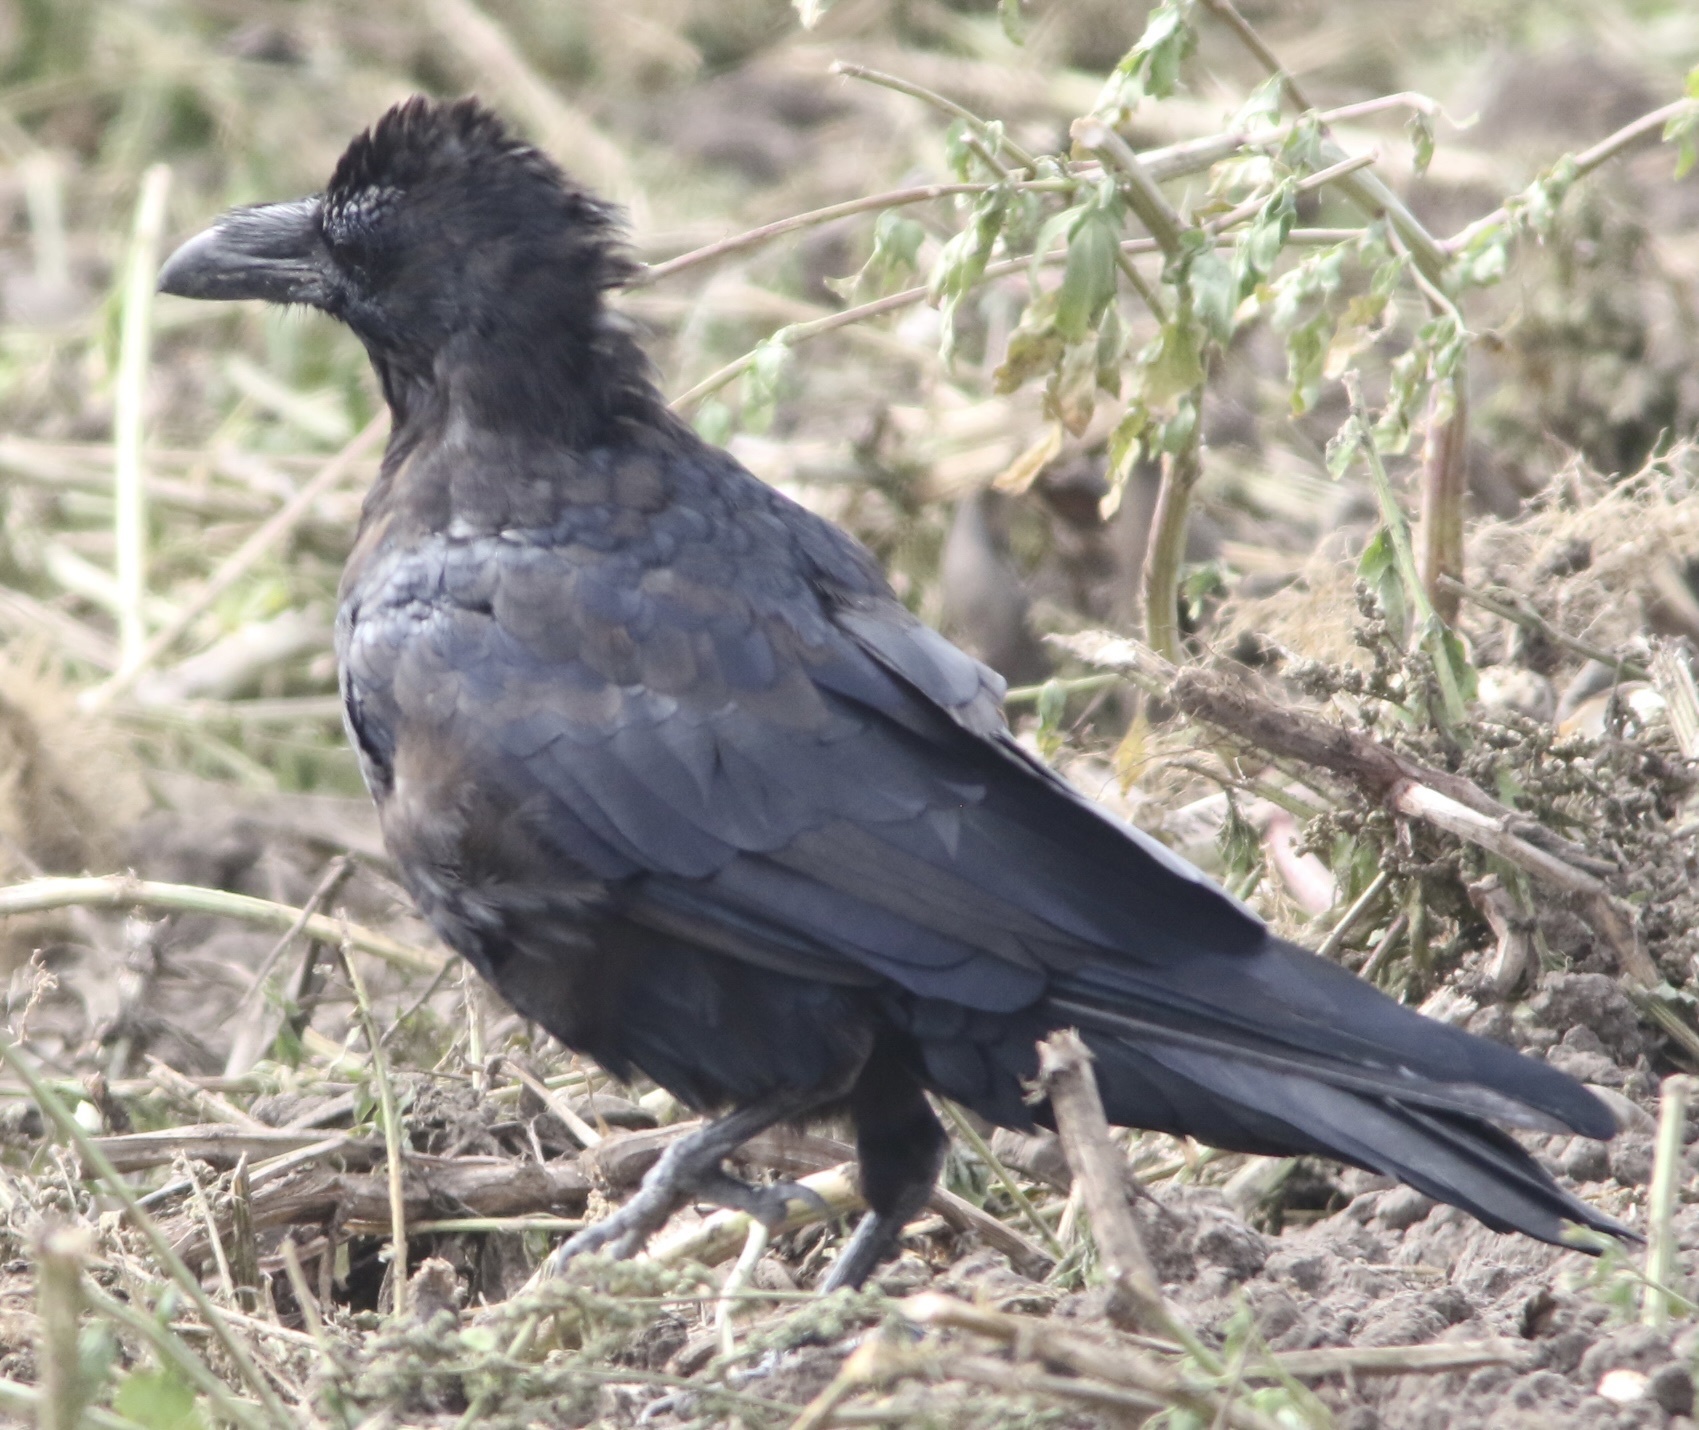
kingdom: Animalia
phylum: Chordata
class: Aves
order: Passeriformes
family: Corvidae
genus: Corvus
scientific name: Corvus corax
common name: Common raven
